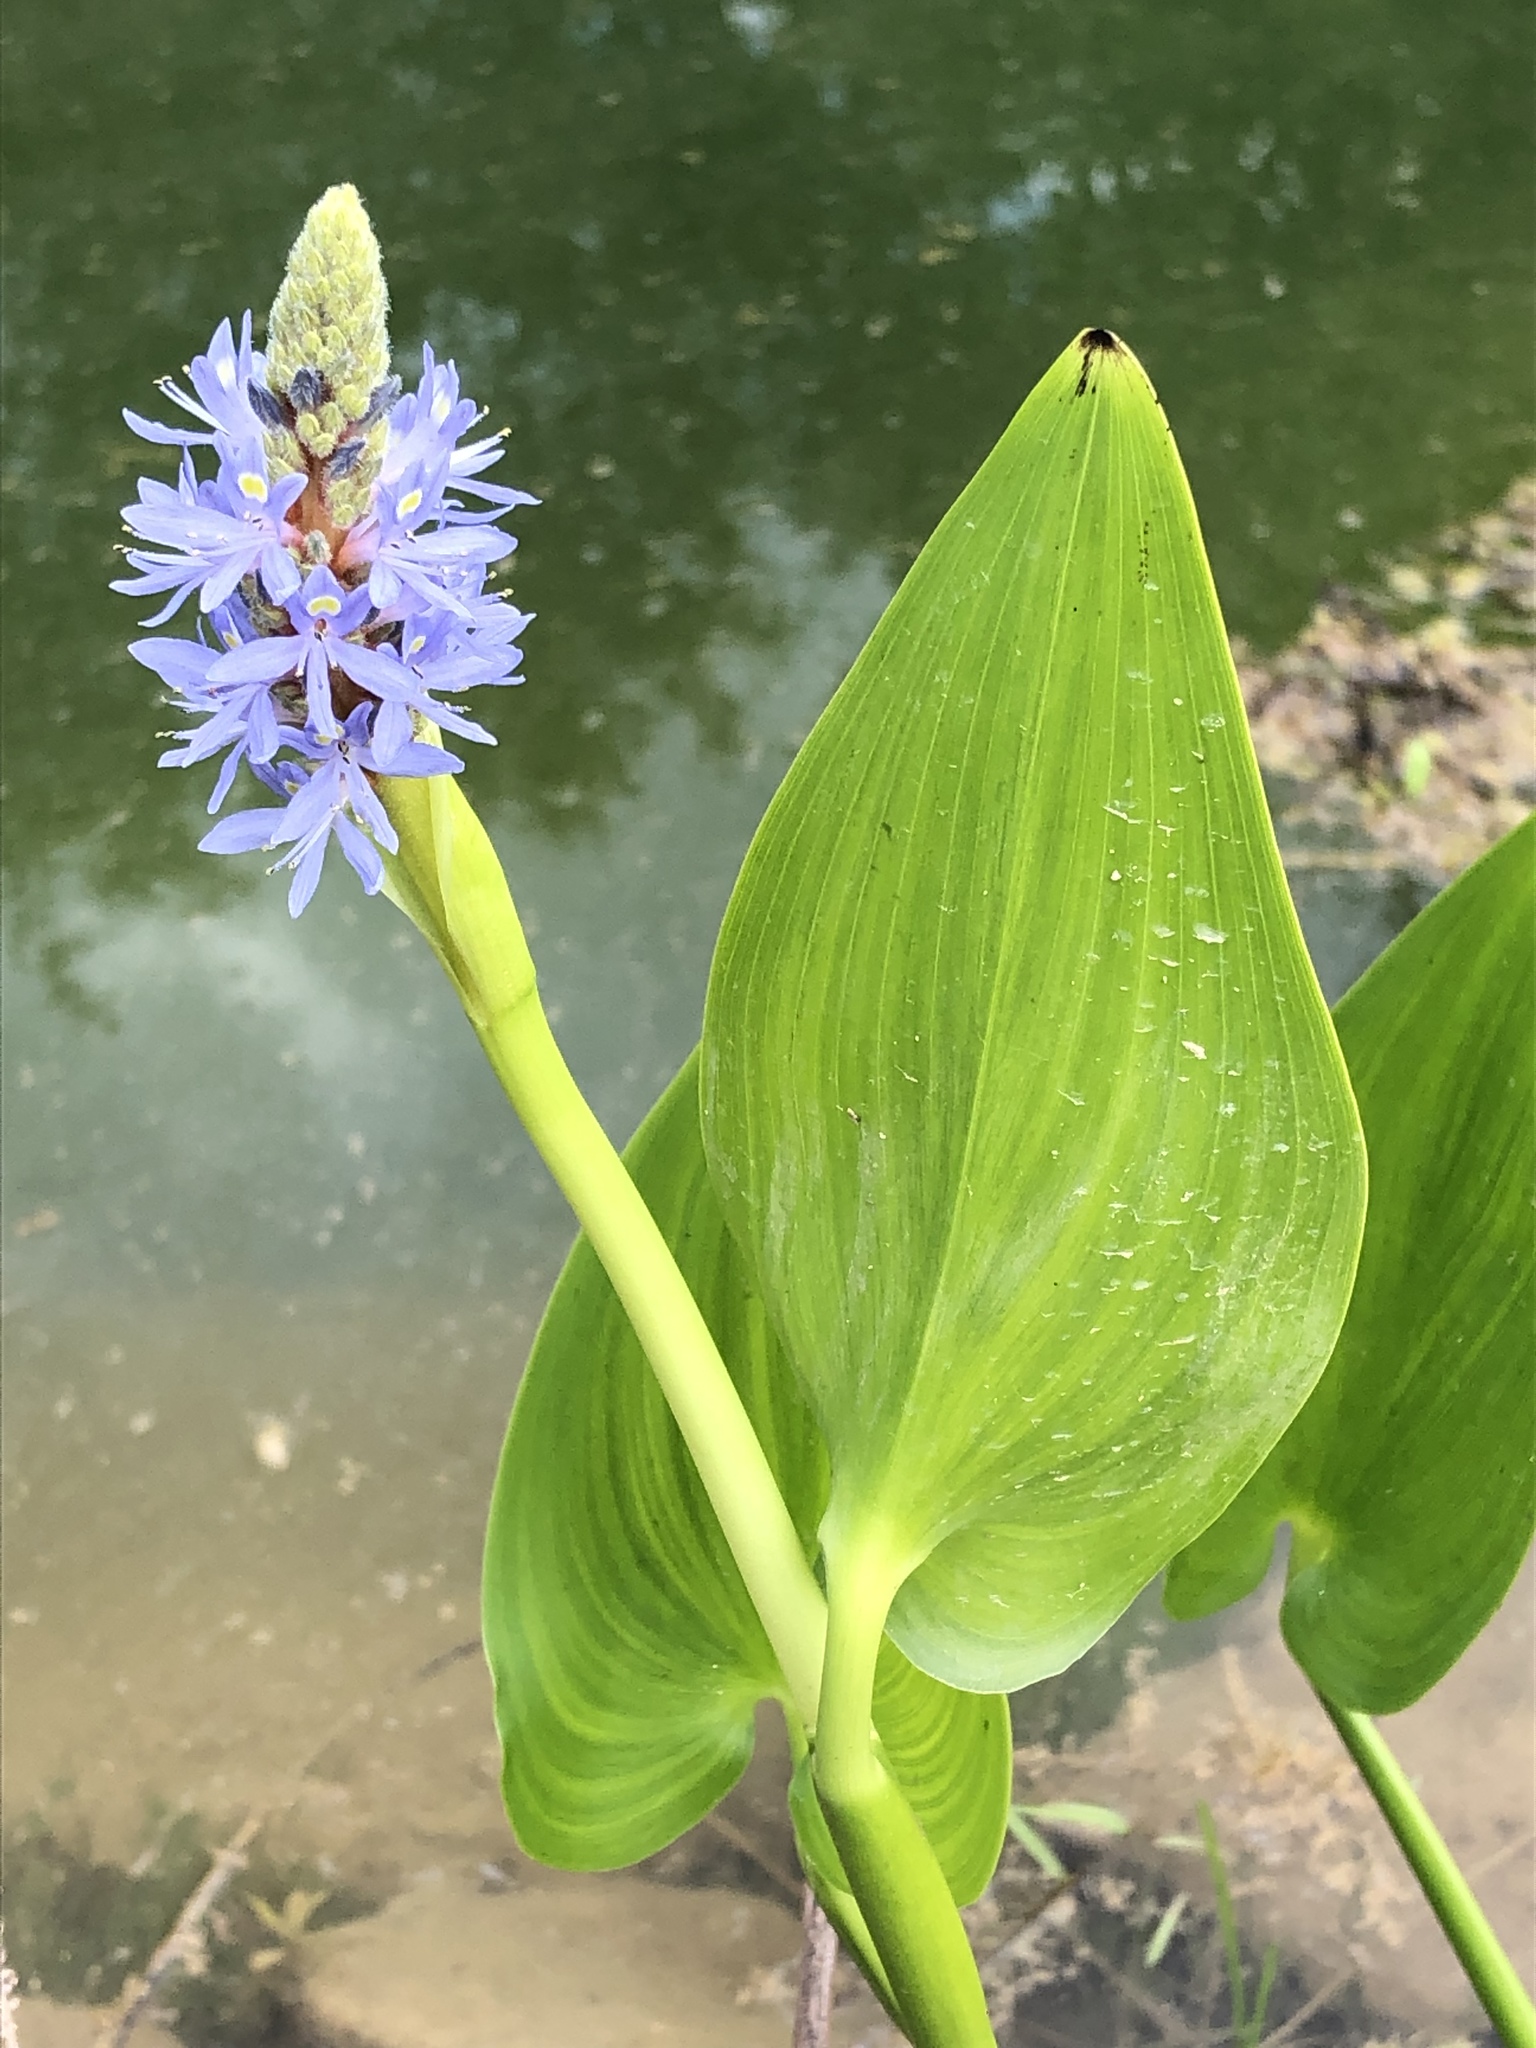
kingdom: Plantae
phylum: Tracheophyta
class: Liliopsida
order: Commelinales
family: Pontederiaceae
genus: Pontederia
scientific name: Pontederia cordata
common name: Pickerelweed
